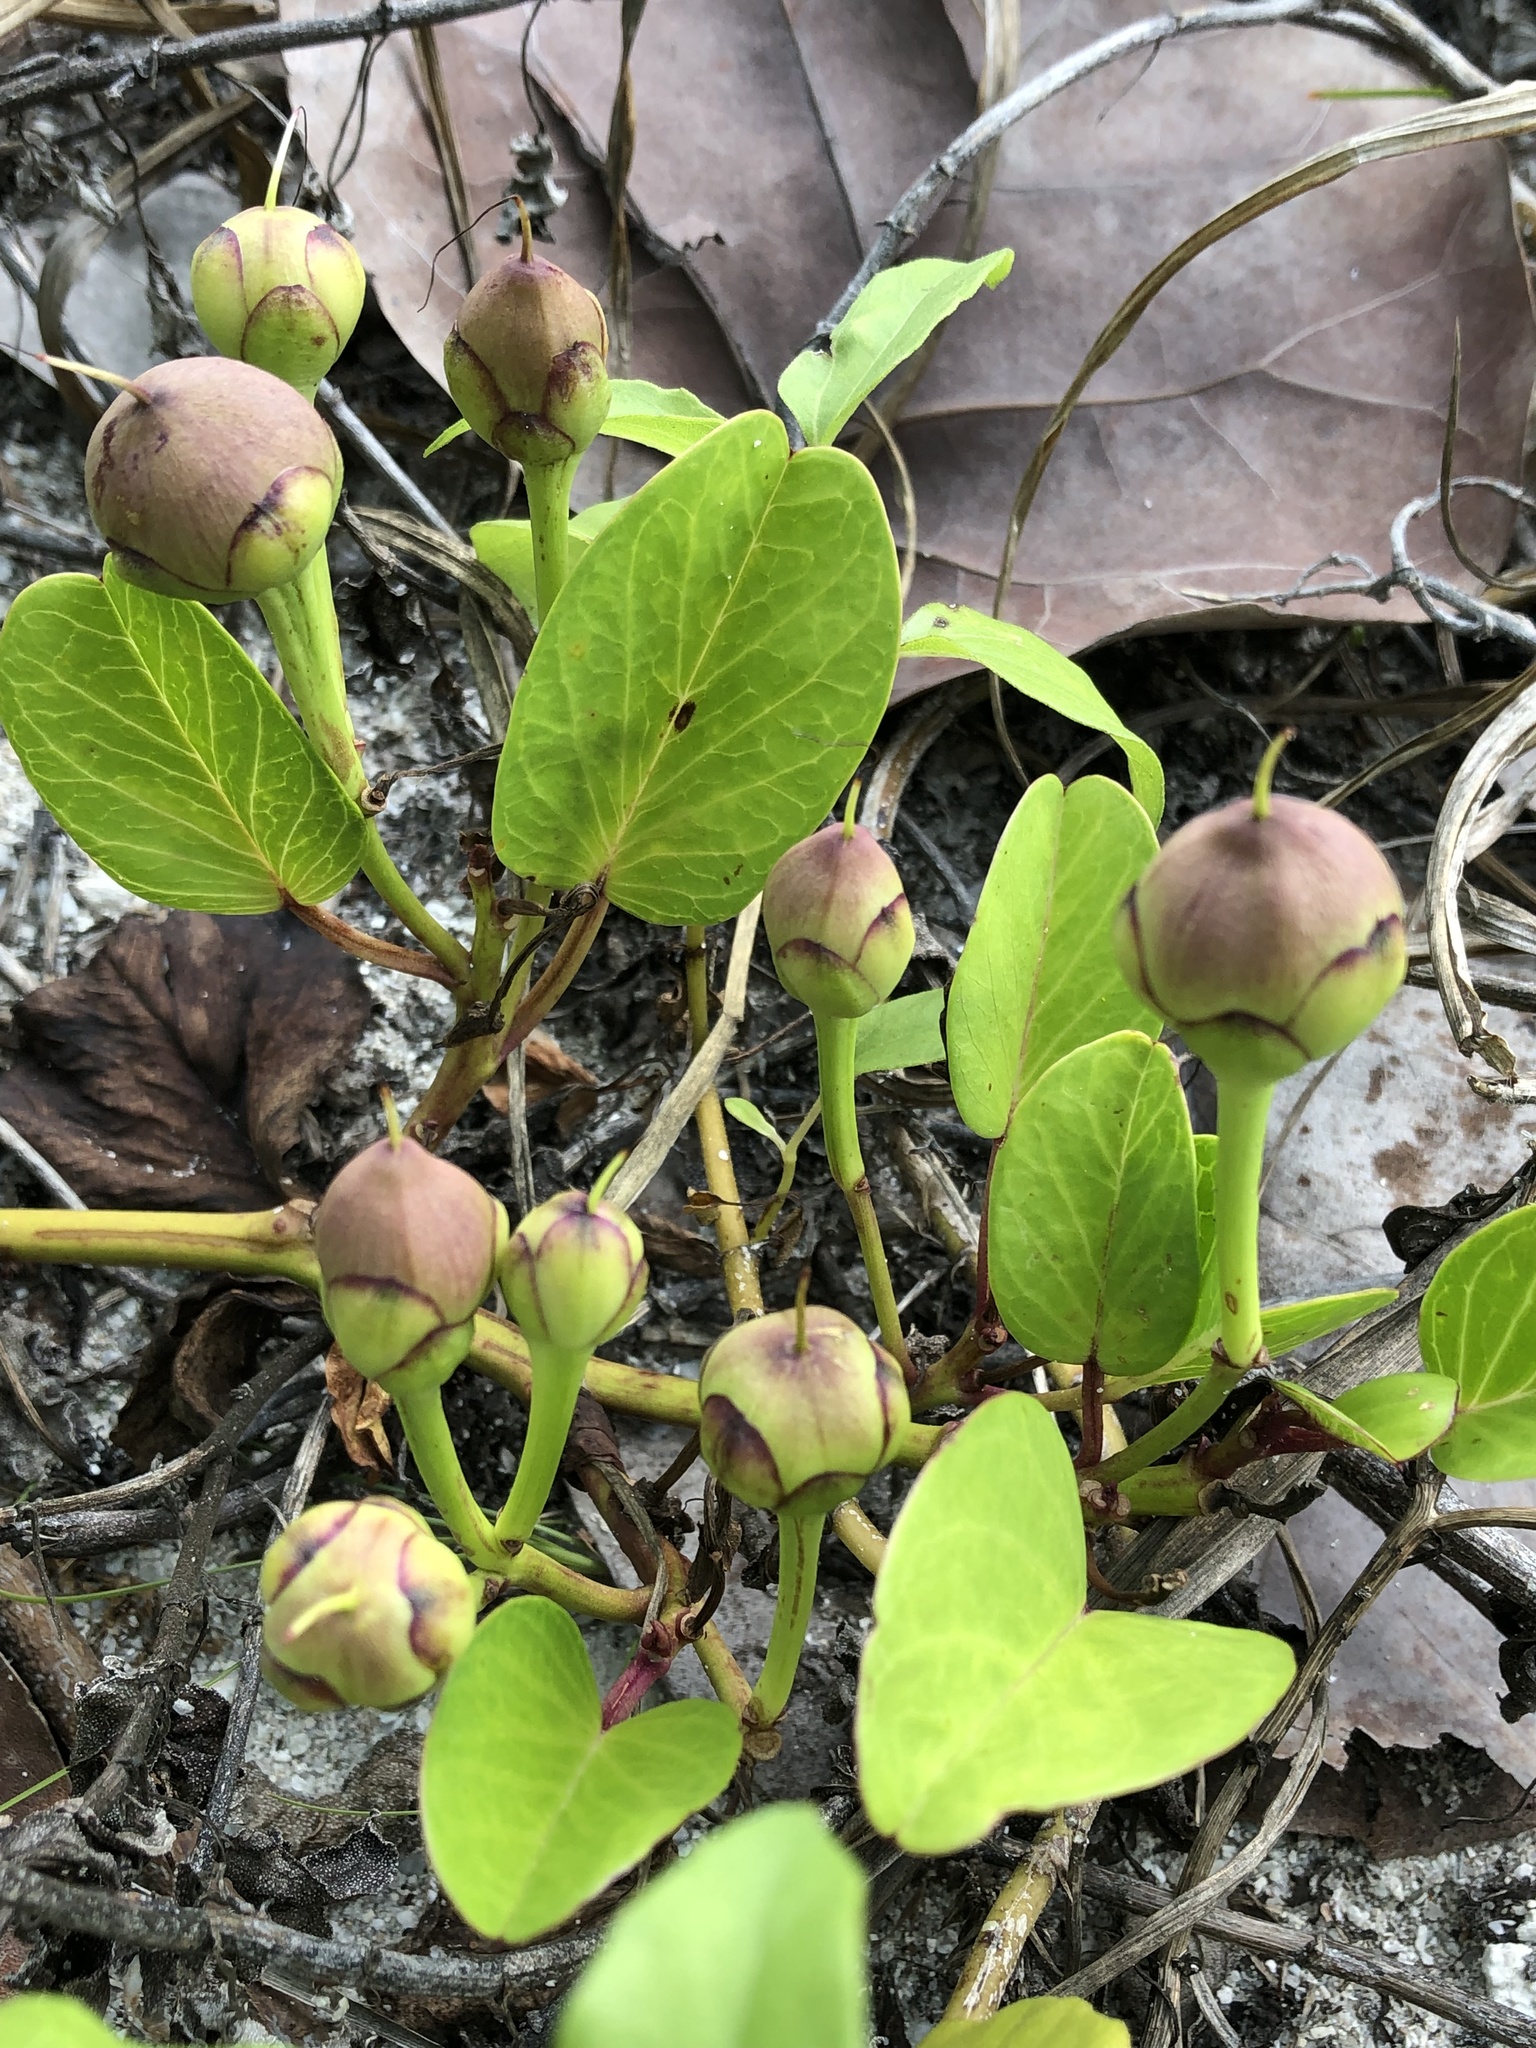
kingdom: Plantae
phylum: Tracheophyta
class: Magnoliopsida
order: Solanales
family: Convolvulaceae
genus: Ipomoea
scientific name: Ipomoea pes-caprae
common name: Beach morning glory
